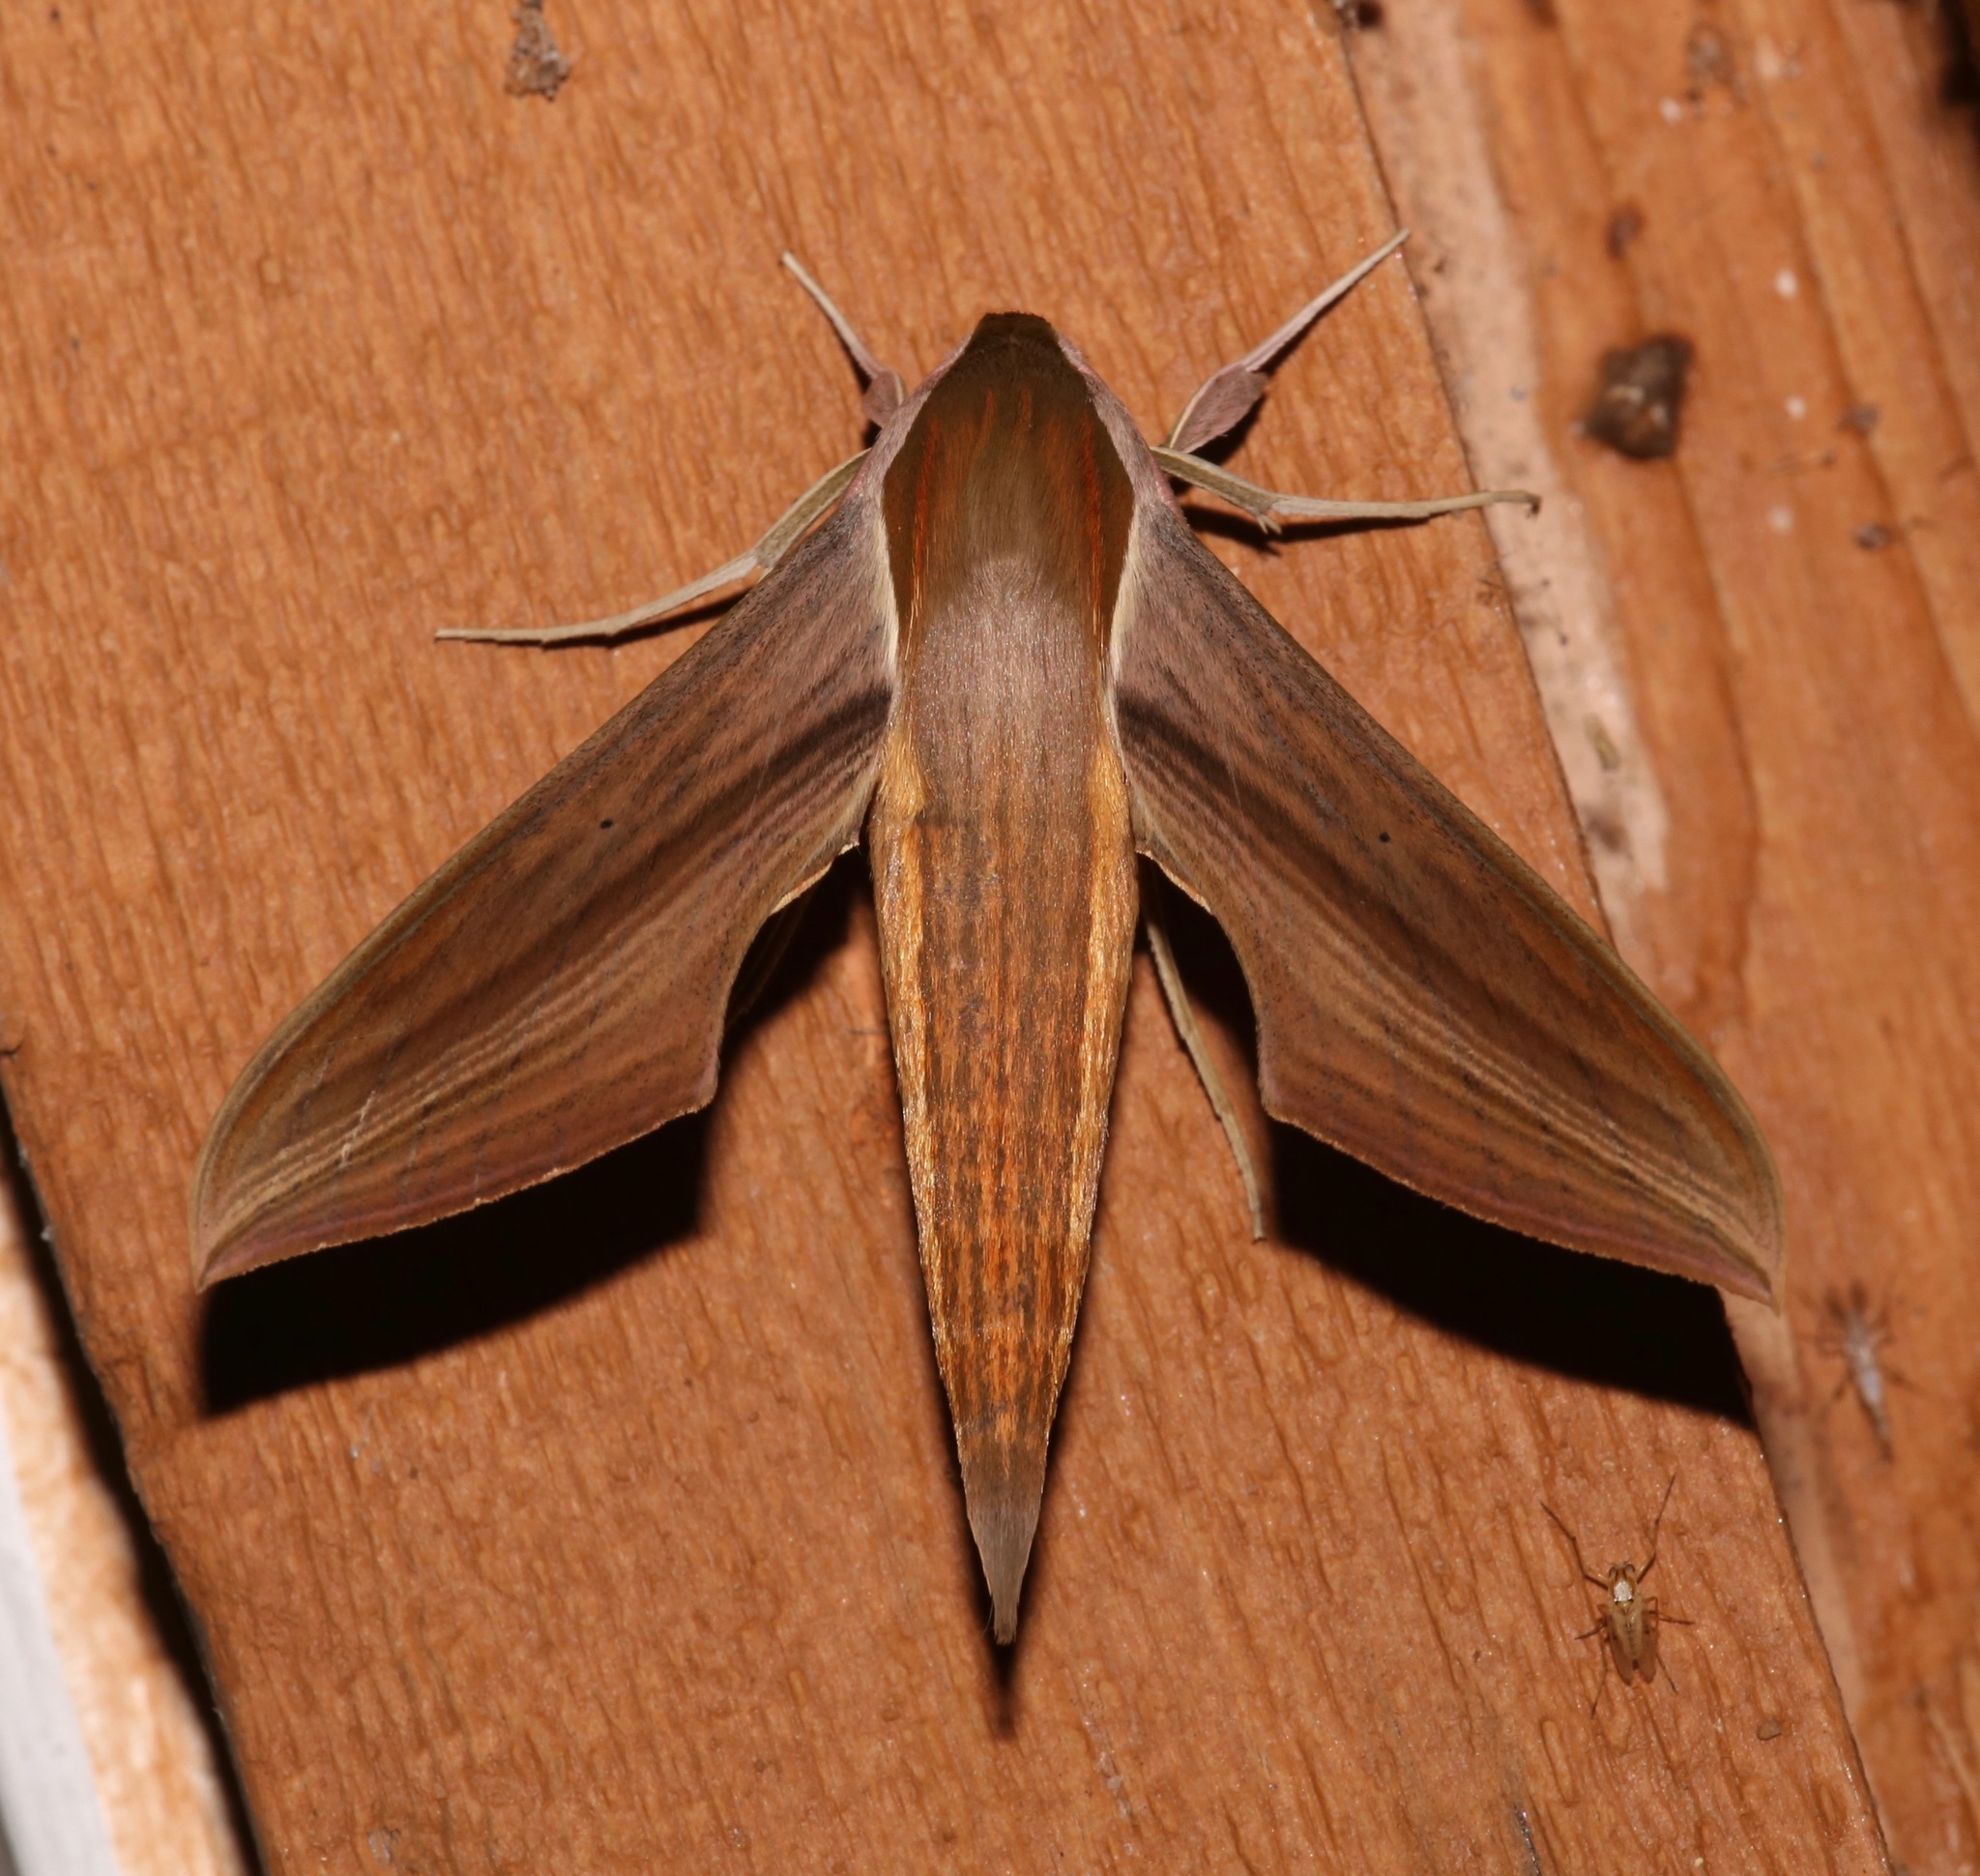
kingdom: Animalia
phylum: Arthropoda
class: Insecta
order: Lepidoptera
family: Sphingidae
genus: Xylophanes
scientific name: Xylophanes tersa
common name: Tersa sphinx
